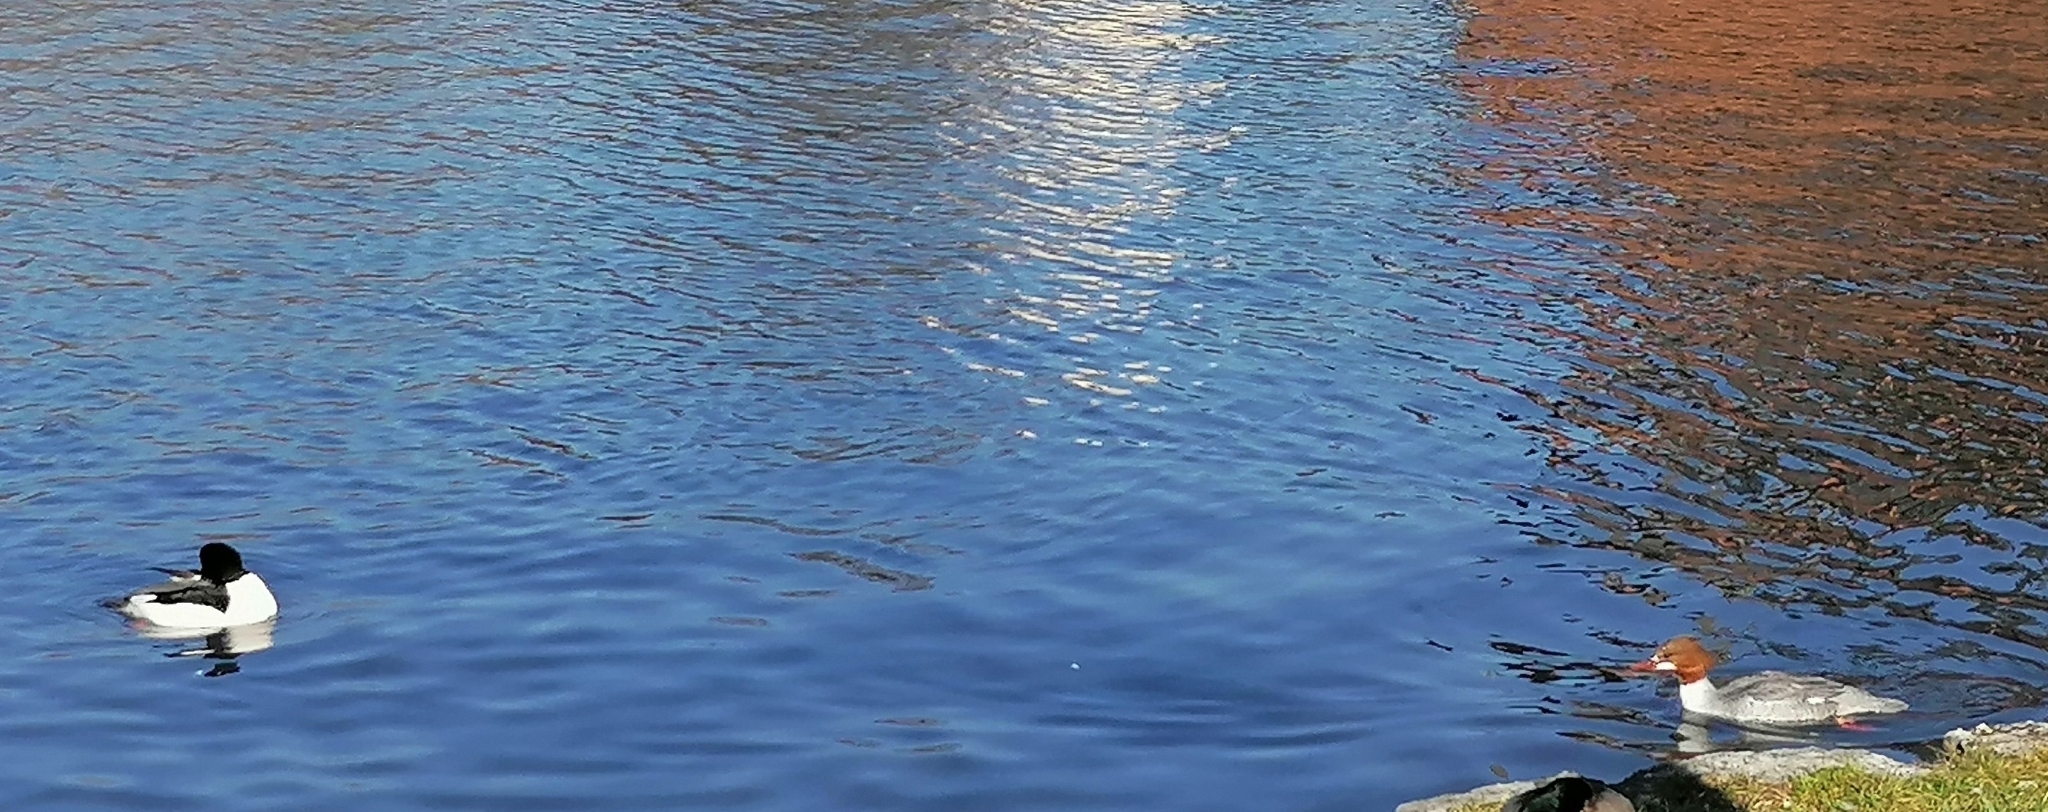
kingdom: Animalia
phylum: Chordata
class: Aves
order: Anseriformes
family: Anatidae
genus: Mergus
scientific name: Mergus merganser
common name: Common merganser
